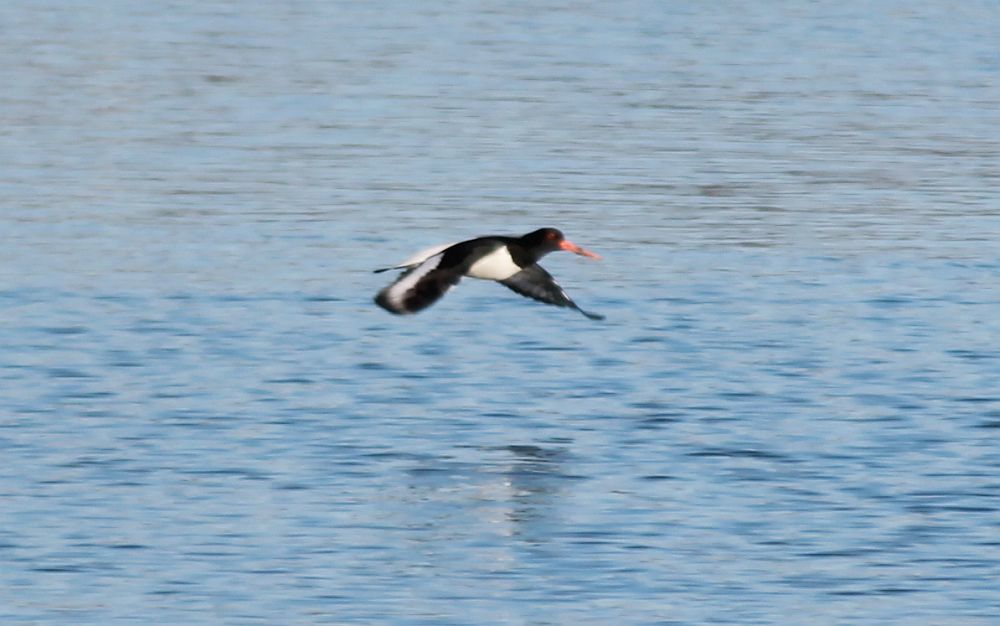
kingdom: Animalia
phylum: Chordata
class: Aves
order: Charadriiformes
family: Haematopodidae
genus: Haematopus
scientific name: Haematopus ostralegus
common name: Eurasian oystercatcher
